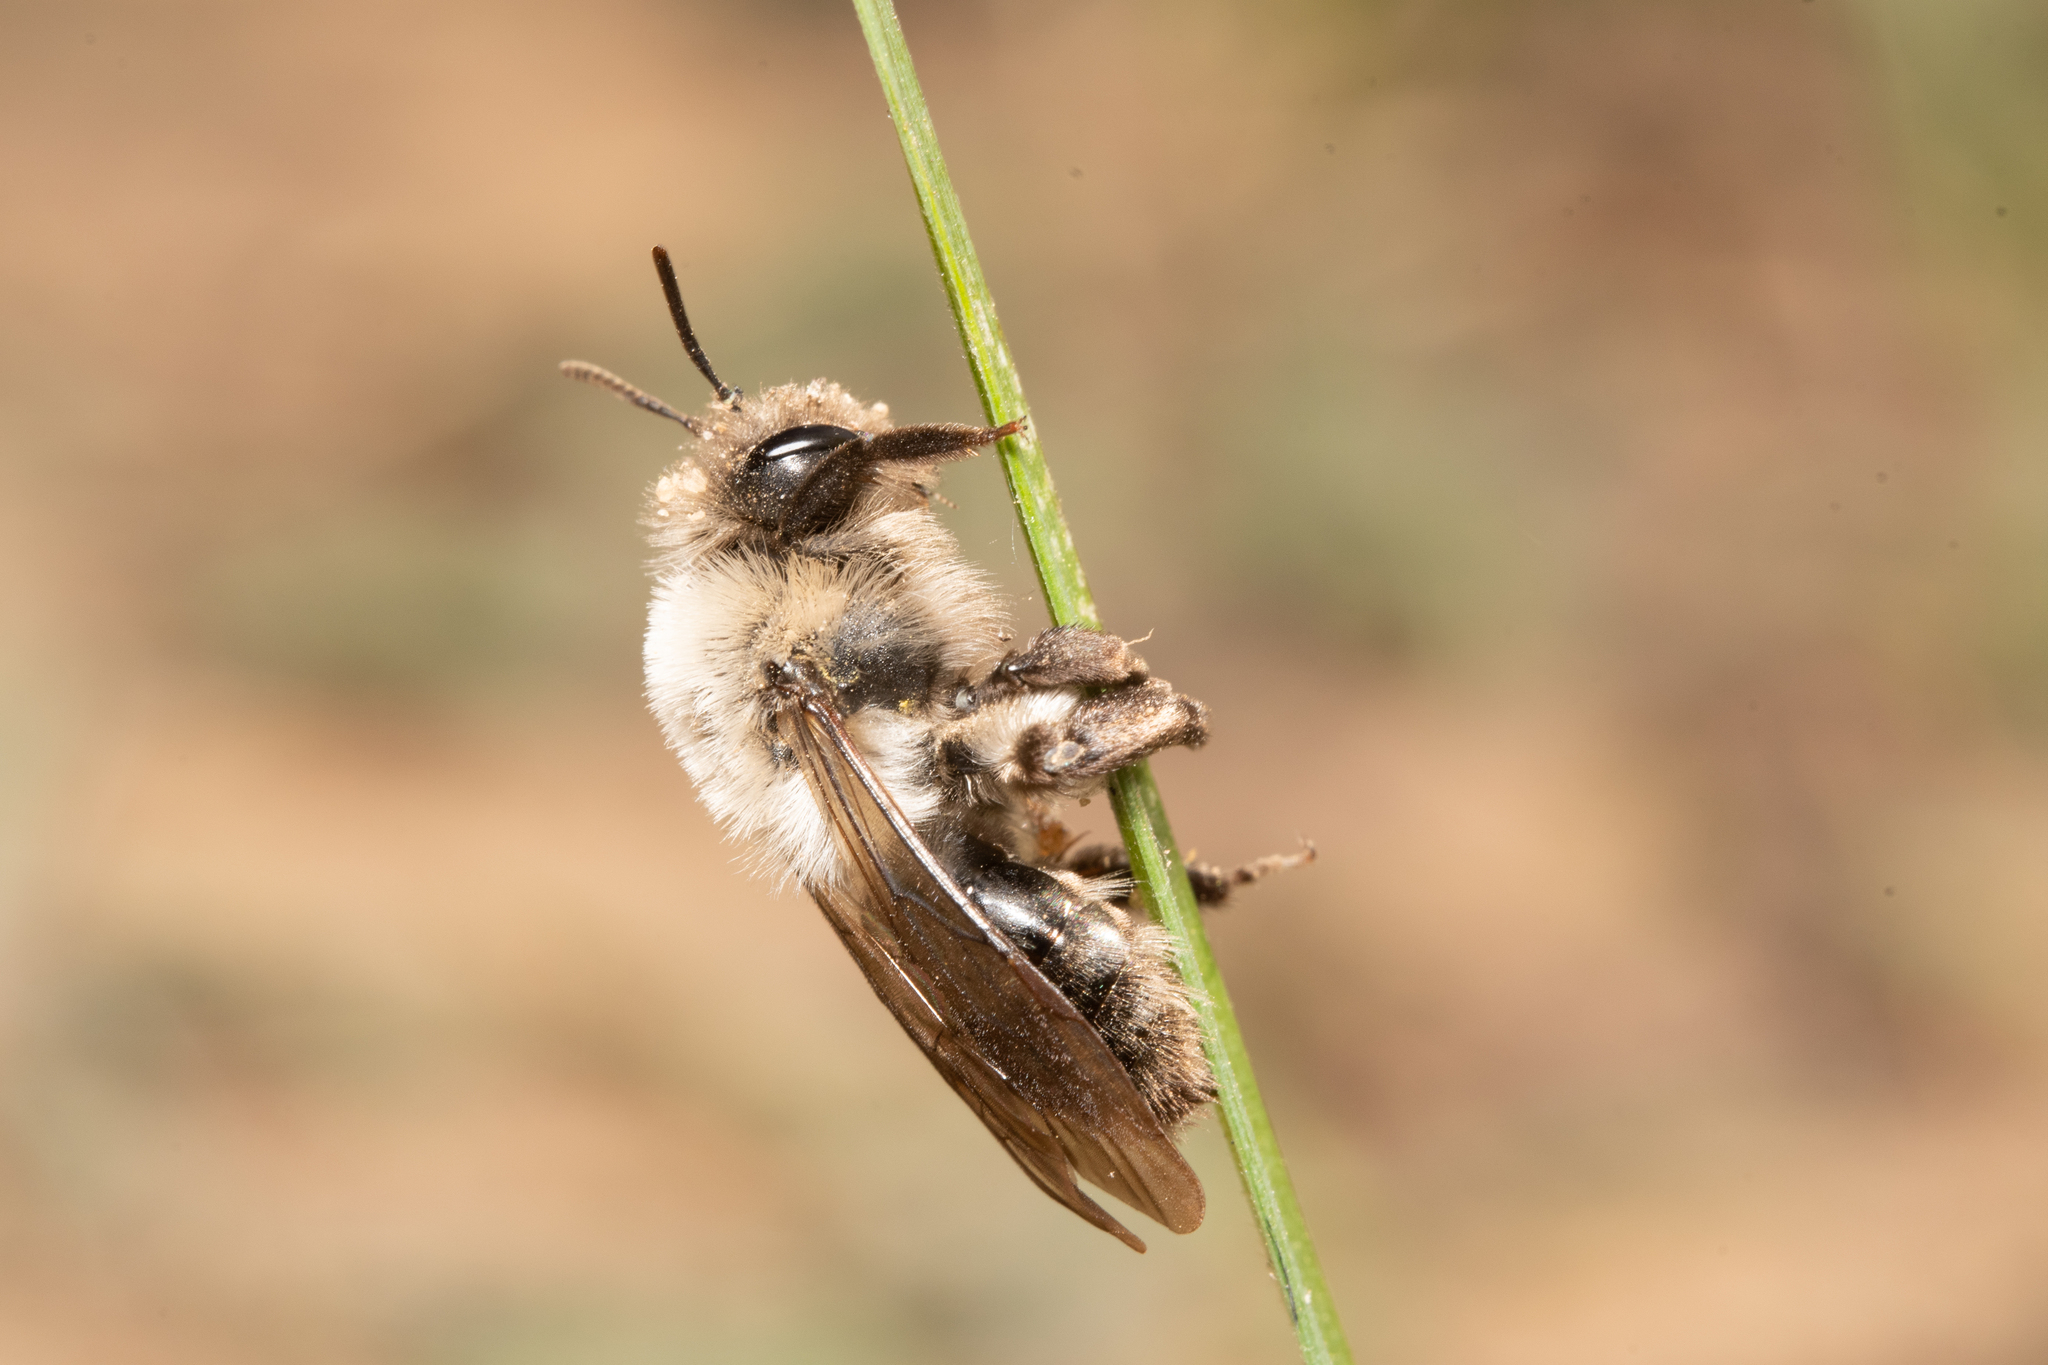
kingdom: Animalia
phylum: Arthropoda
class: Insecta
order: Hymenoptera
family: Andrenidae
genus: Andrena
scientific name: Andrena vaga
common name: Grey-backed mining bee
